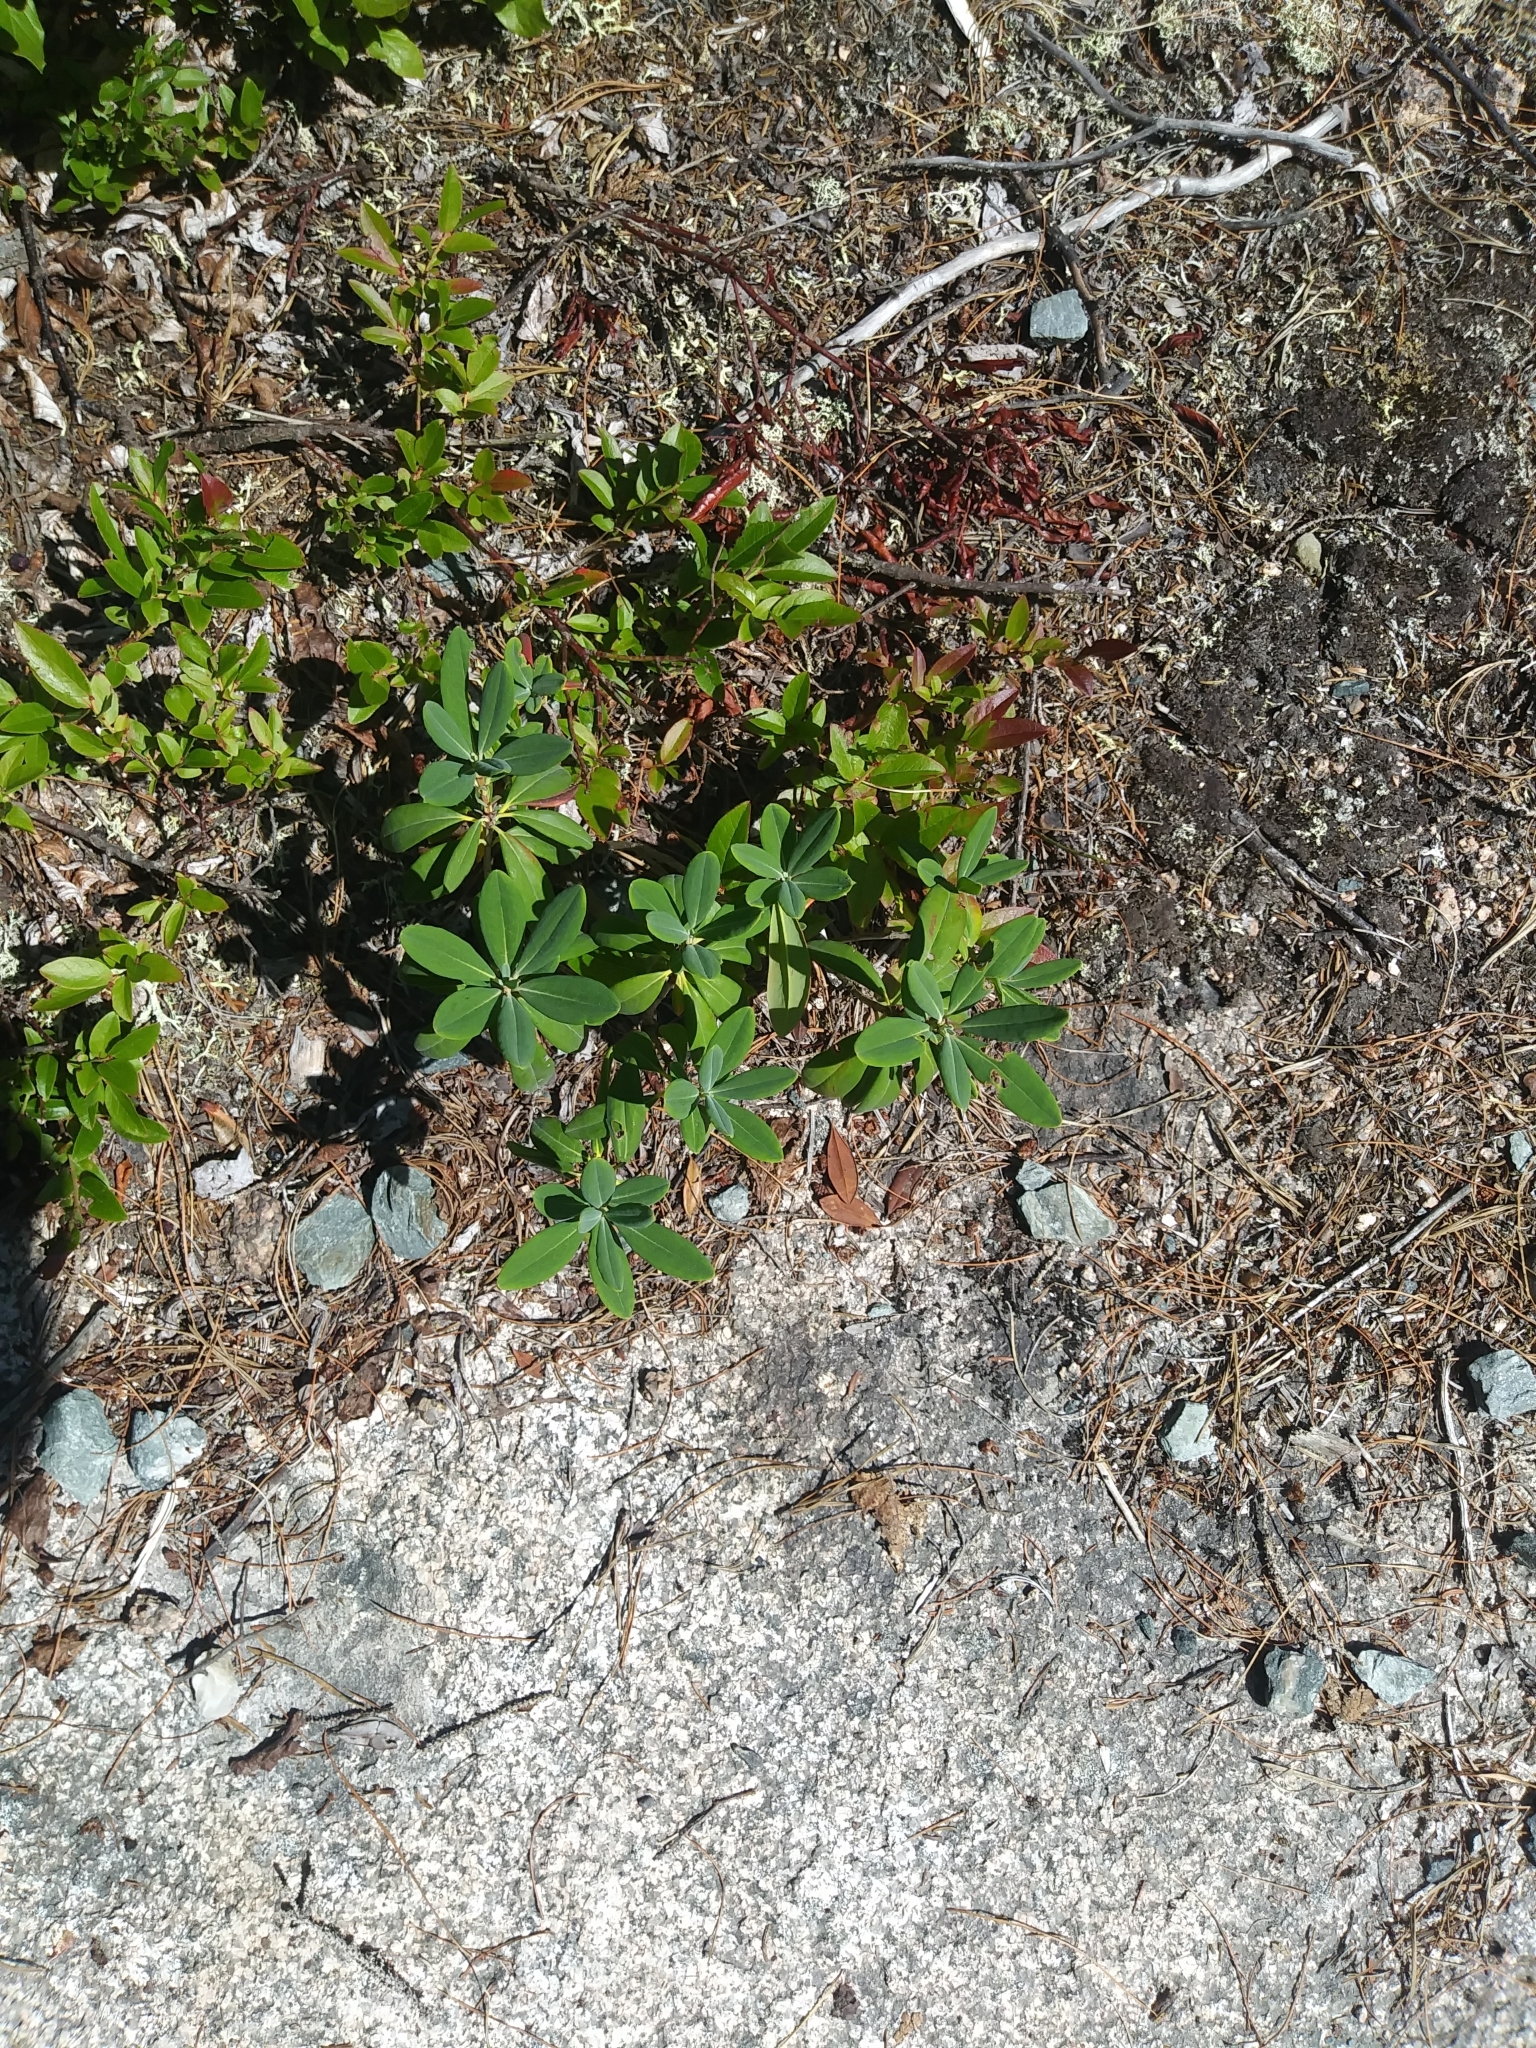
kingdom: Plantae
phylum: Tracheophyta
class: Magnoliopsida
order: Ericales
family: Ericaceae
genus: Kalmia
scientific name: Kalmia angustifolia
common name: Sheep-laurel
